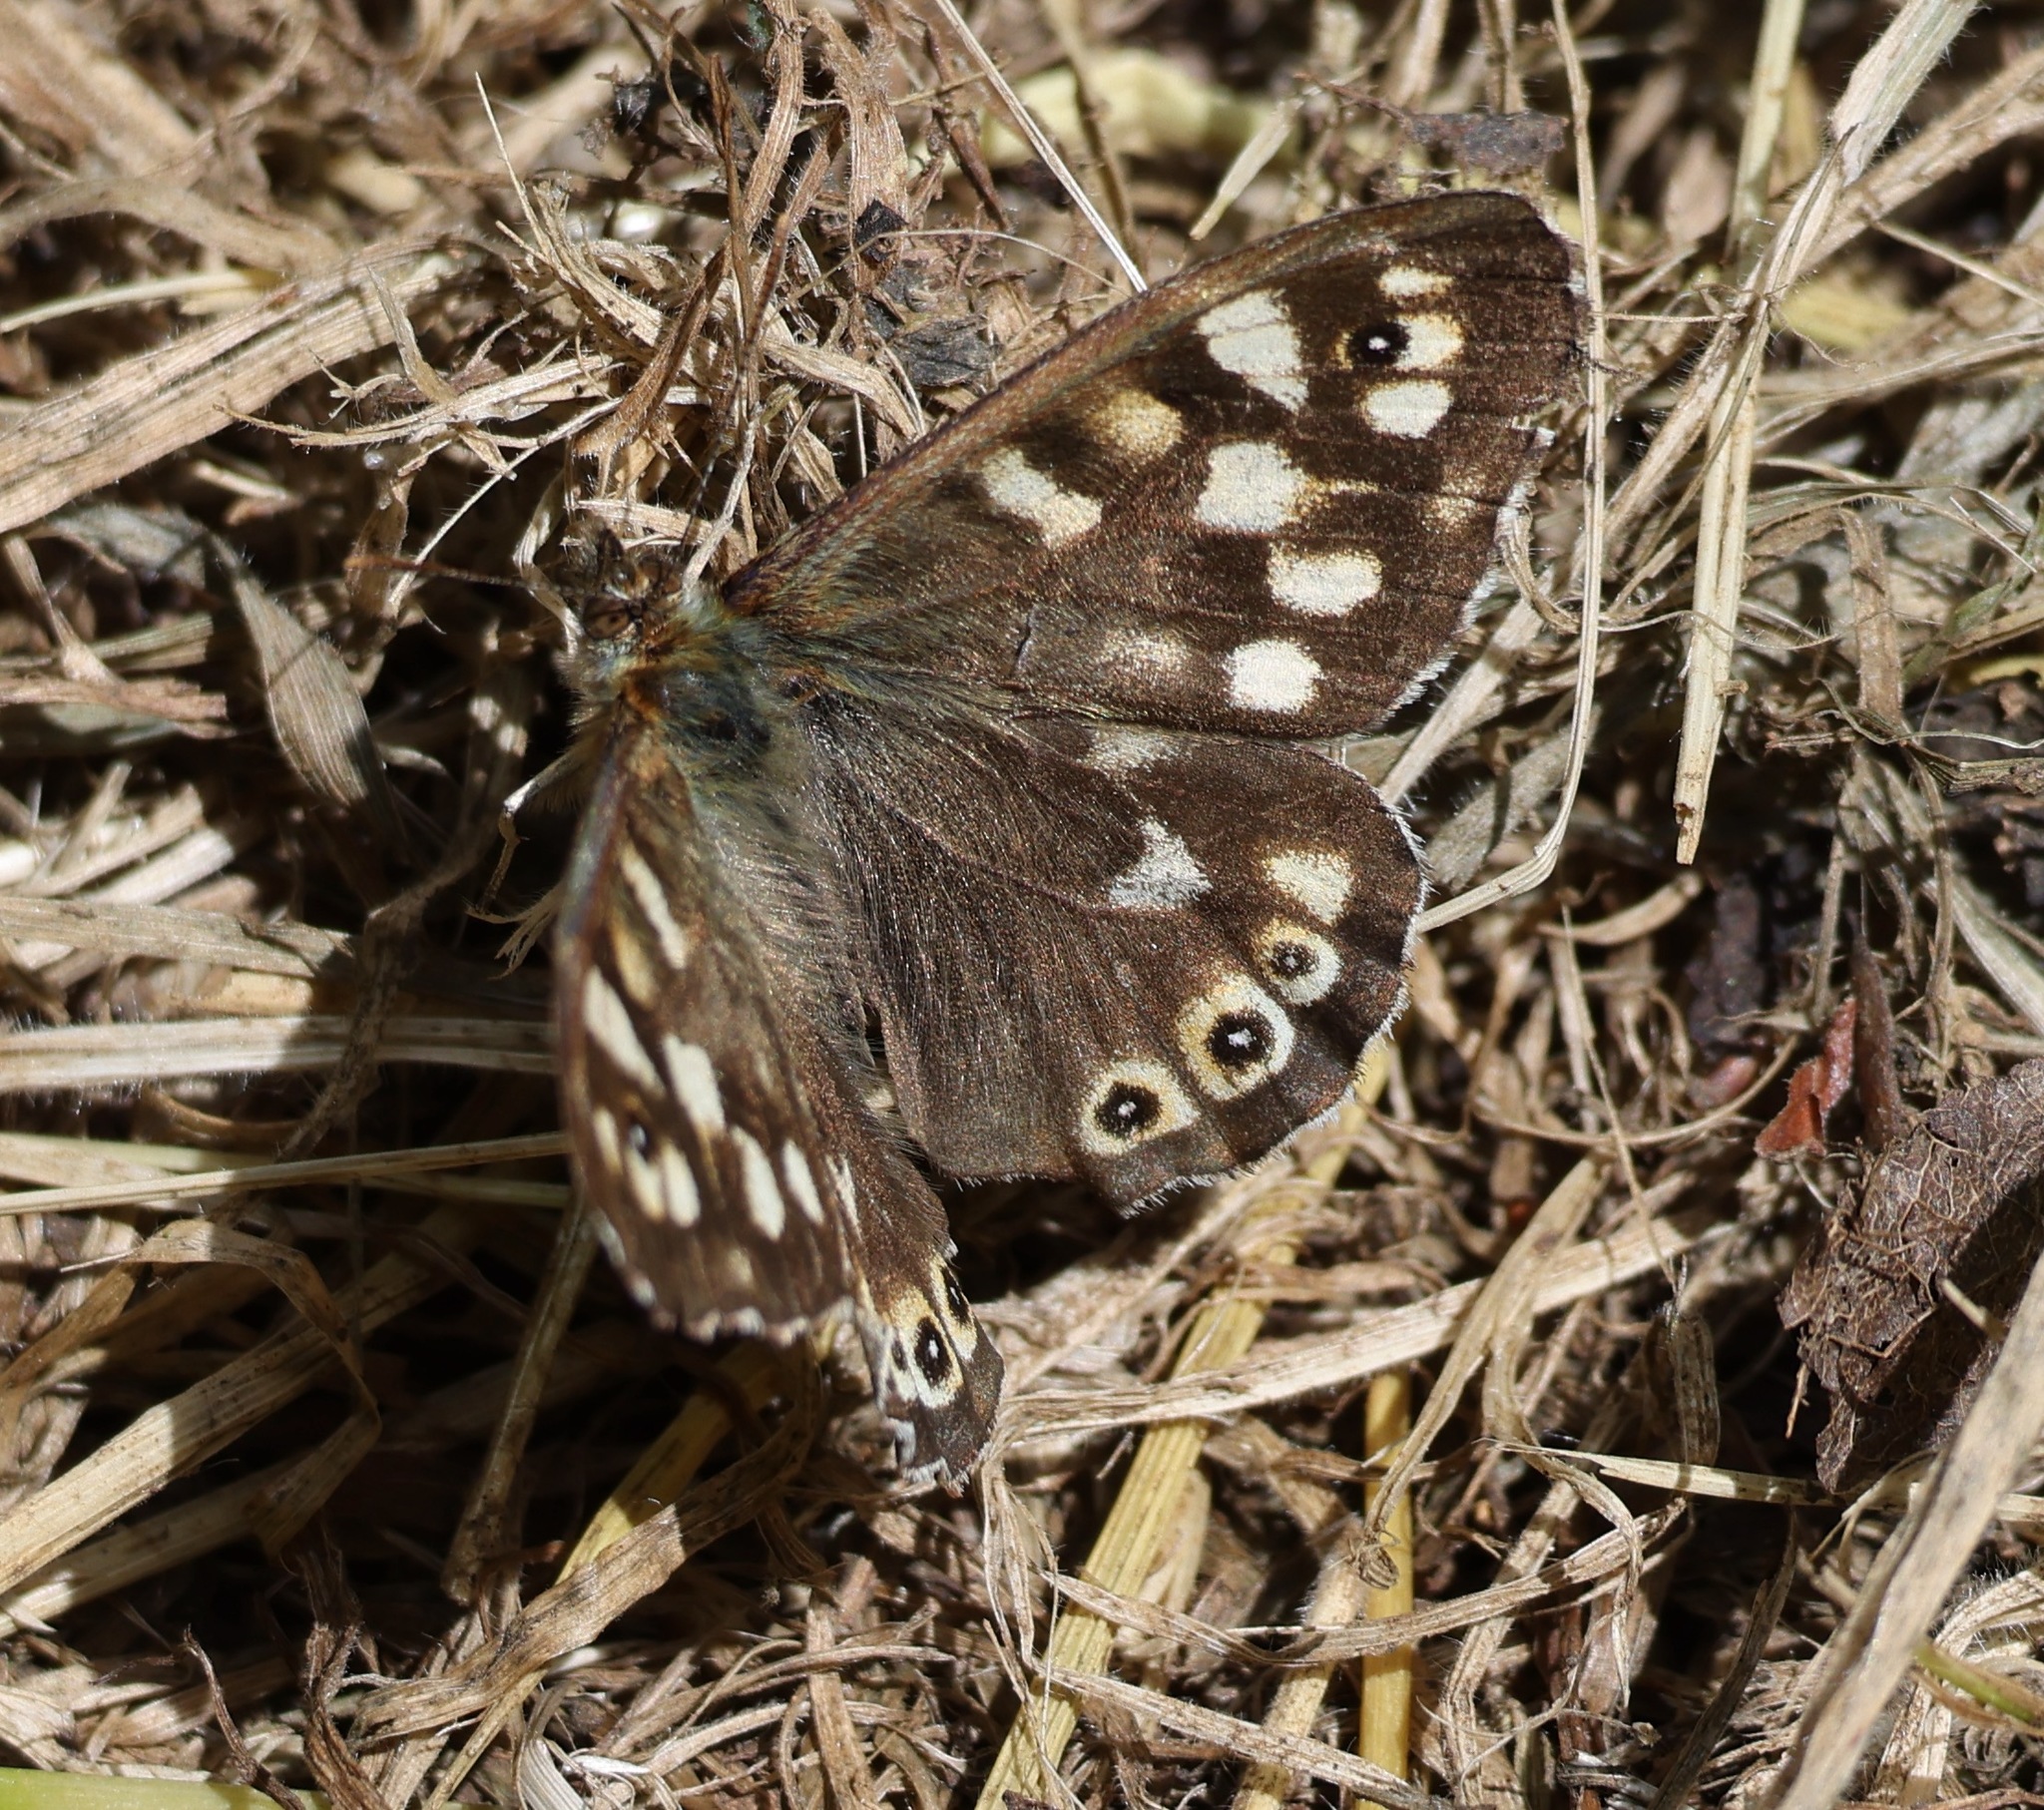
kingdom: Animalia
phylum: Arthropoda
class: Insecta
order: Lepidoptera
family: Nymphalidae
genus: Pararge
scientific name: Pararge aegeria
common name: Speckled wood
